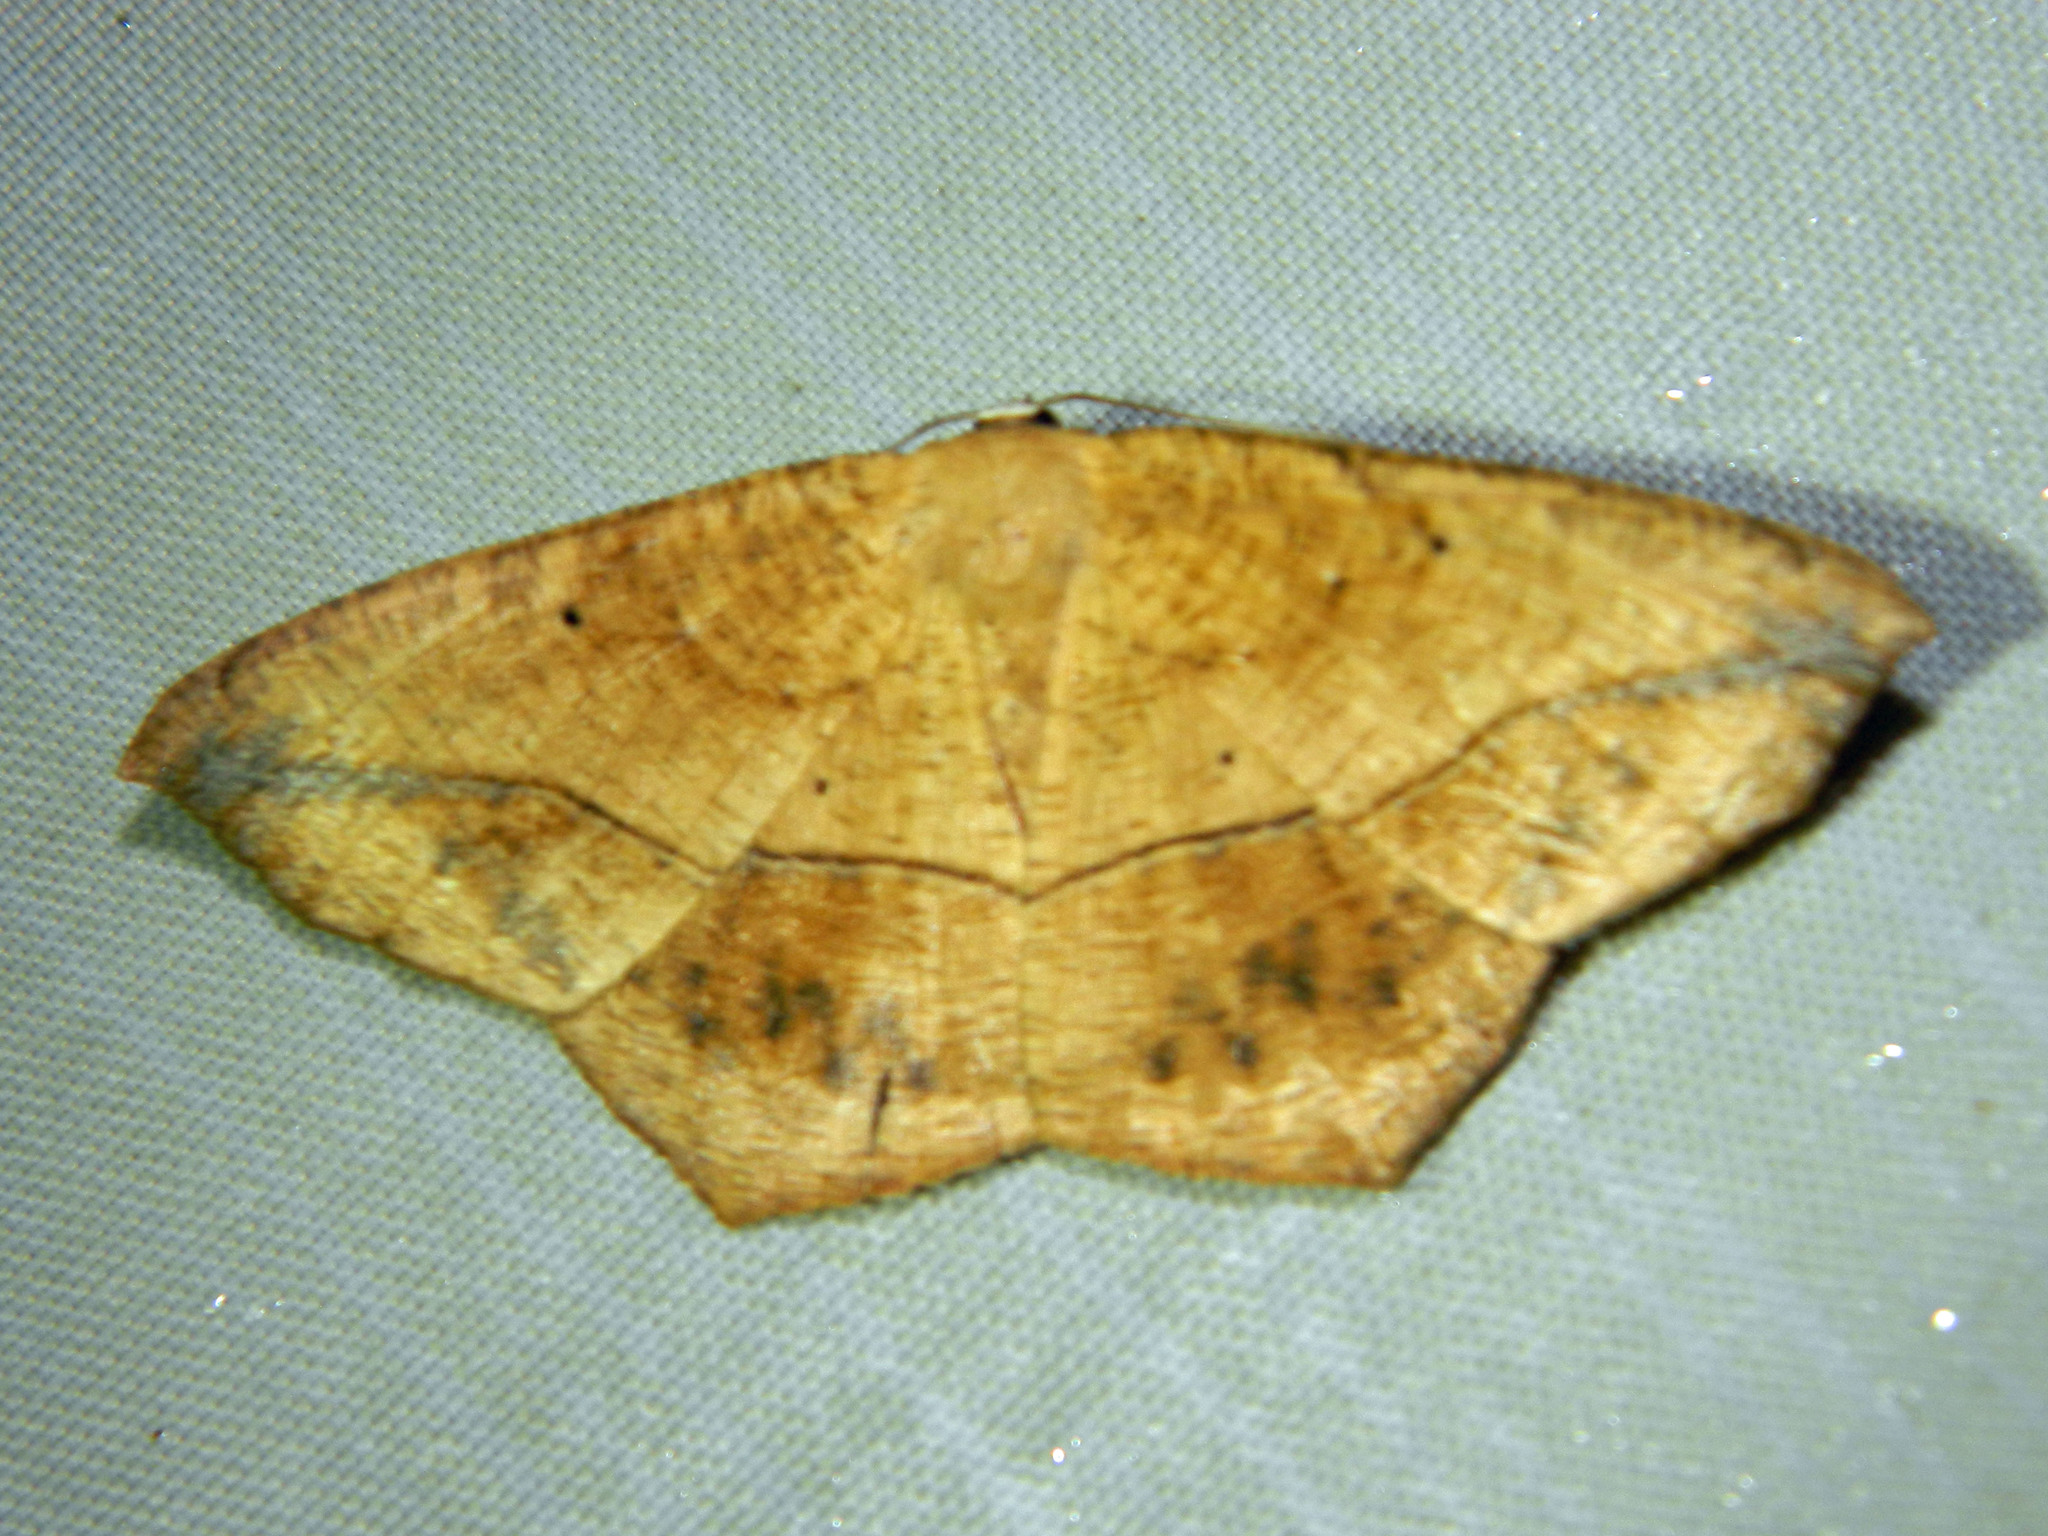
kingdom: Animalia
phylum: Arthropoda
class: Insecta
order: Lepidoptera
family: Geometridae
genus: Prochoerodes
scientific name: Prochoerodes lineola
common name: Large maple spanworm
